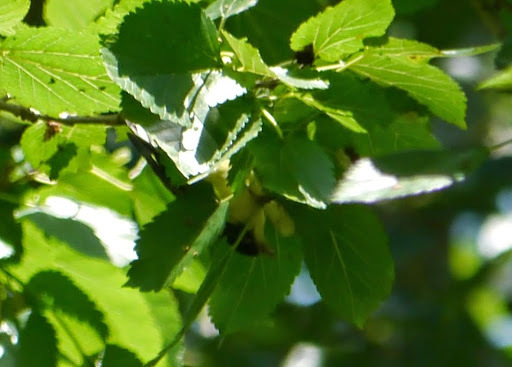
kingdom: Animalia
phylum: Chordata
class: Aves
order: Passeriformes
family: Fringillidae
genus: Spinus
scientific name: Spinus psaltria
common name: Lesser goldfinch
